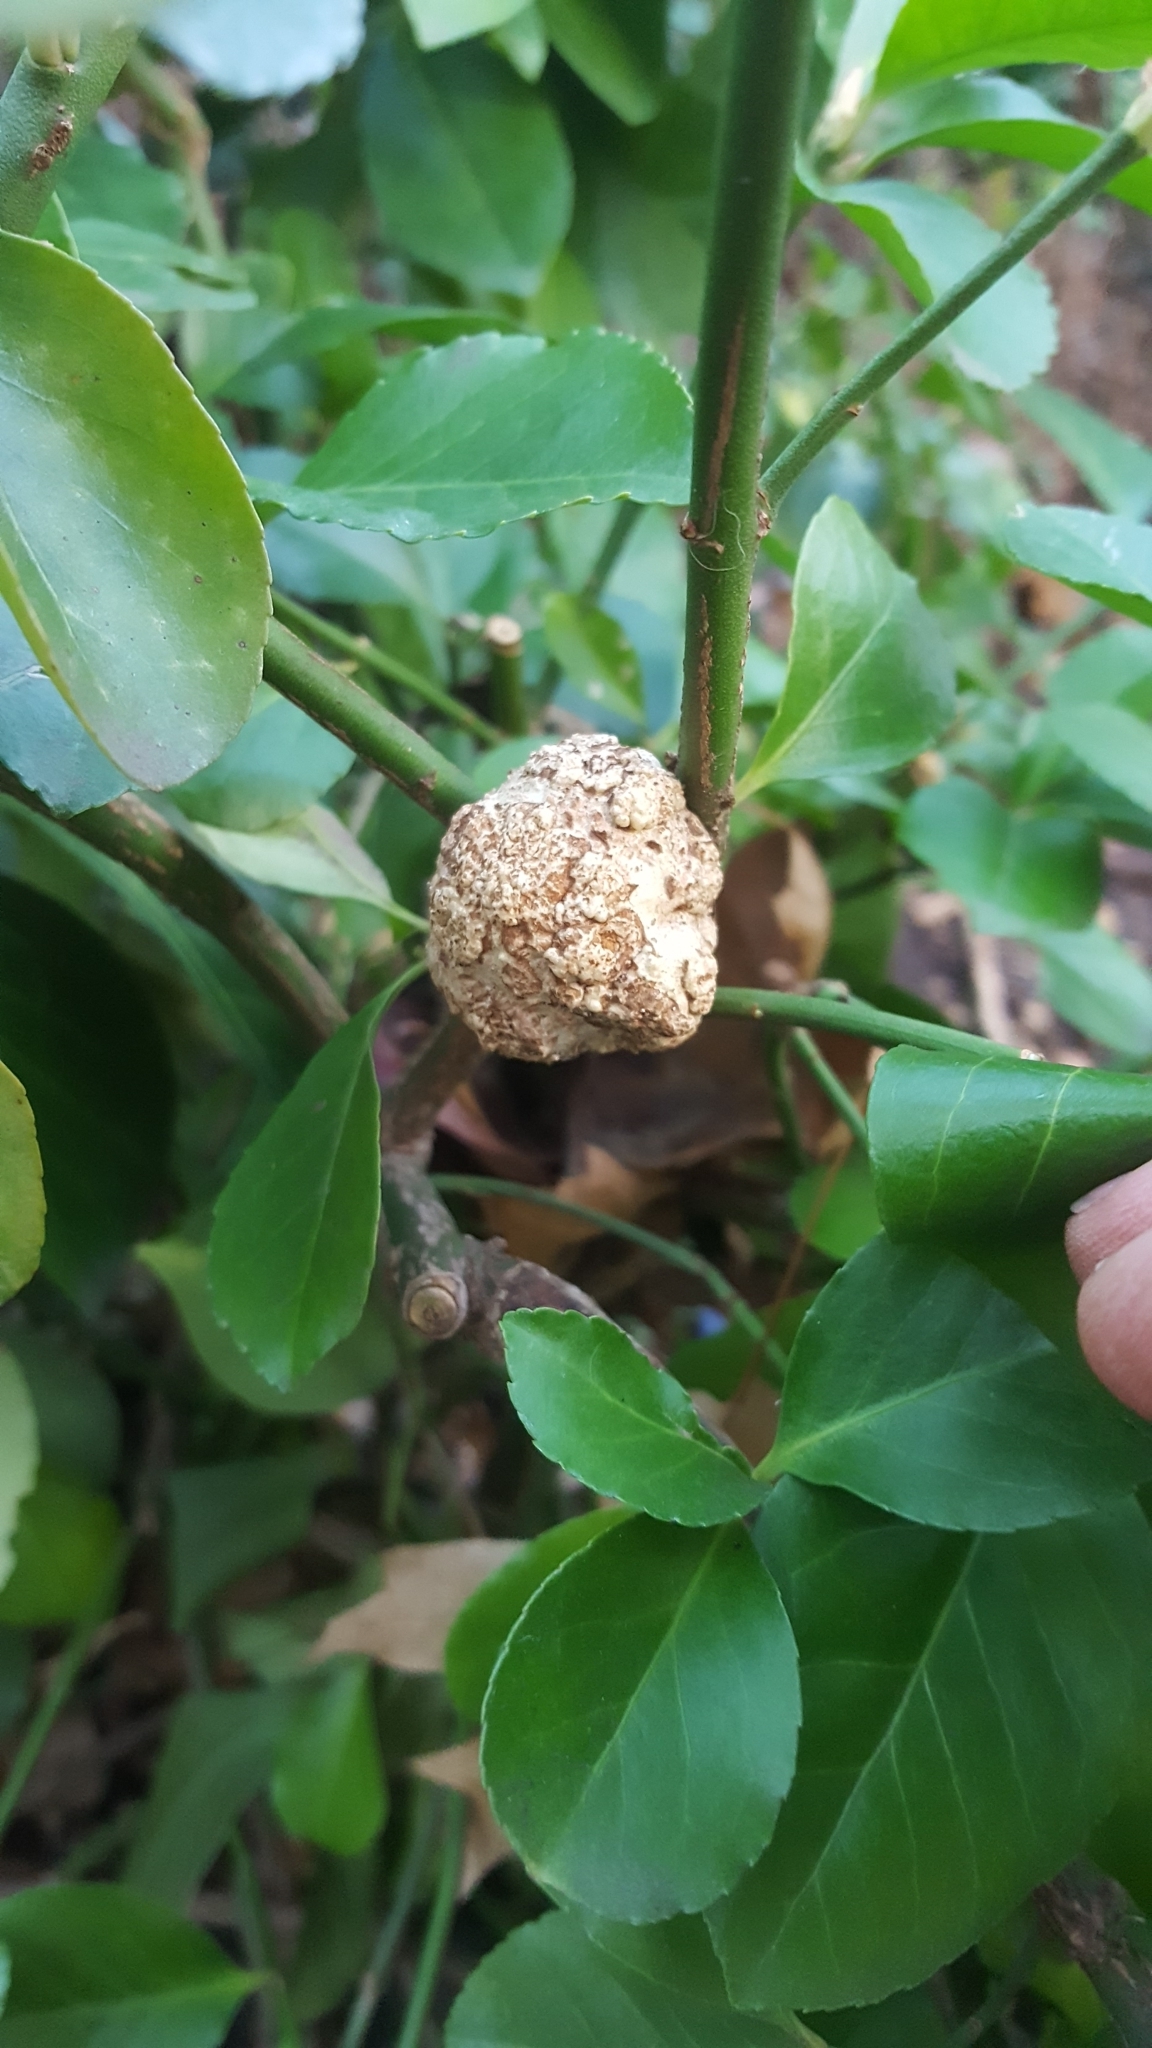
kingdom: Bacteria
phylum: Proteobacteria
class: Alphaproteobacteria
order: Rhizobiales
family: Rhizobiaceae
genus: Rhizobium
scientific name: Rhizobium Agrobacterium radiobacter
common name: Bacterial crown gall
